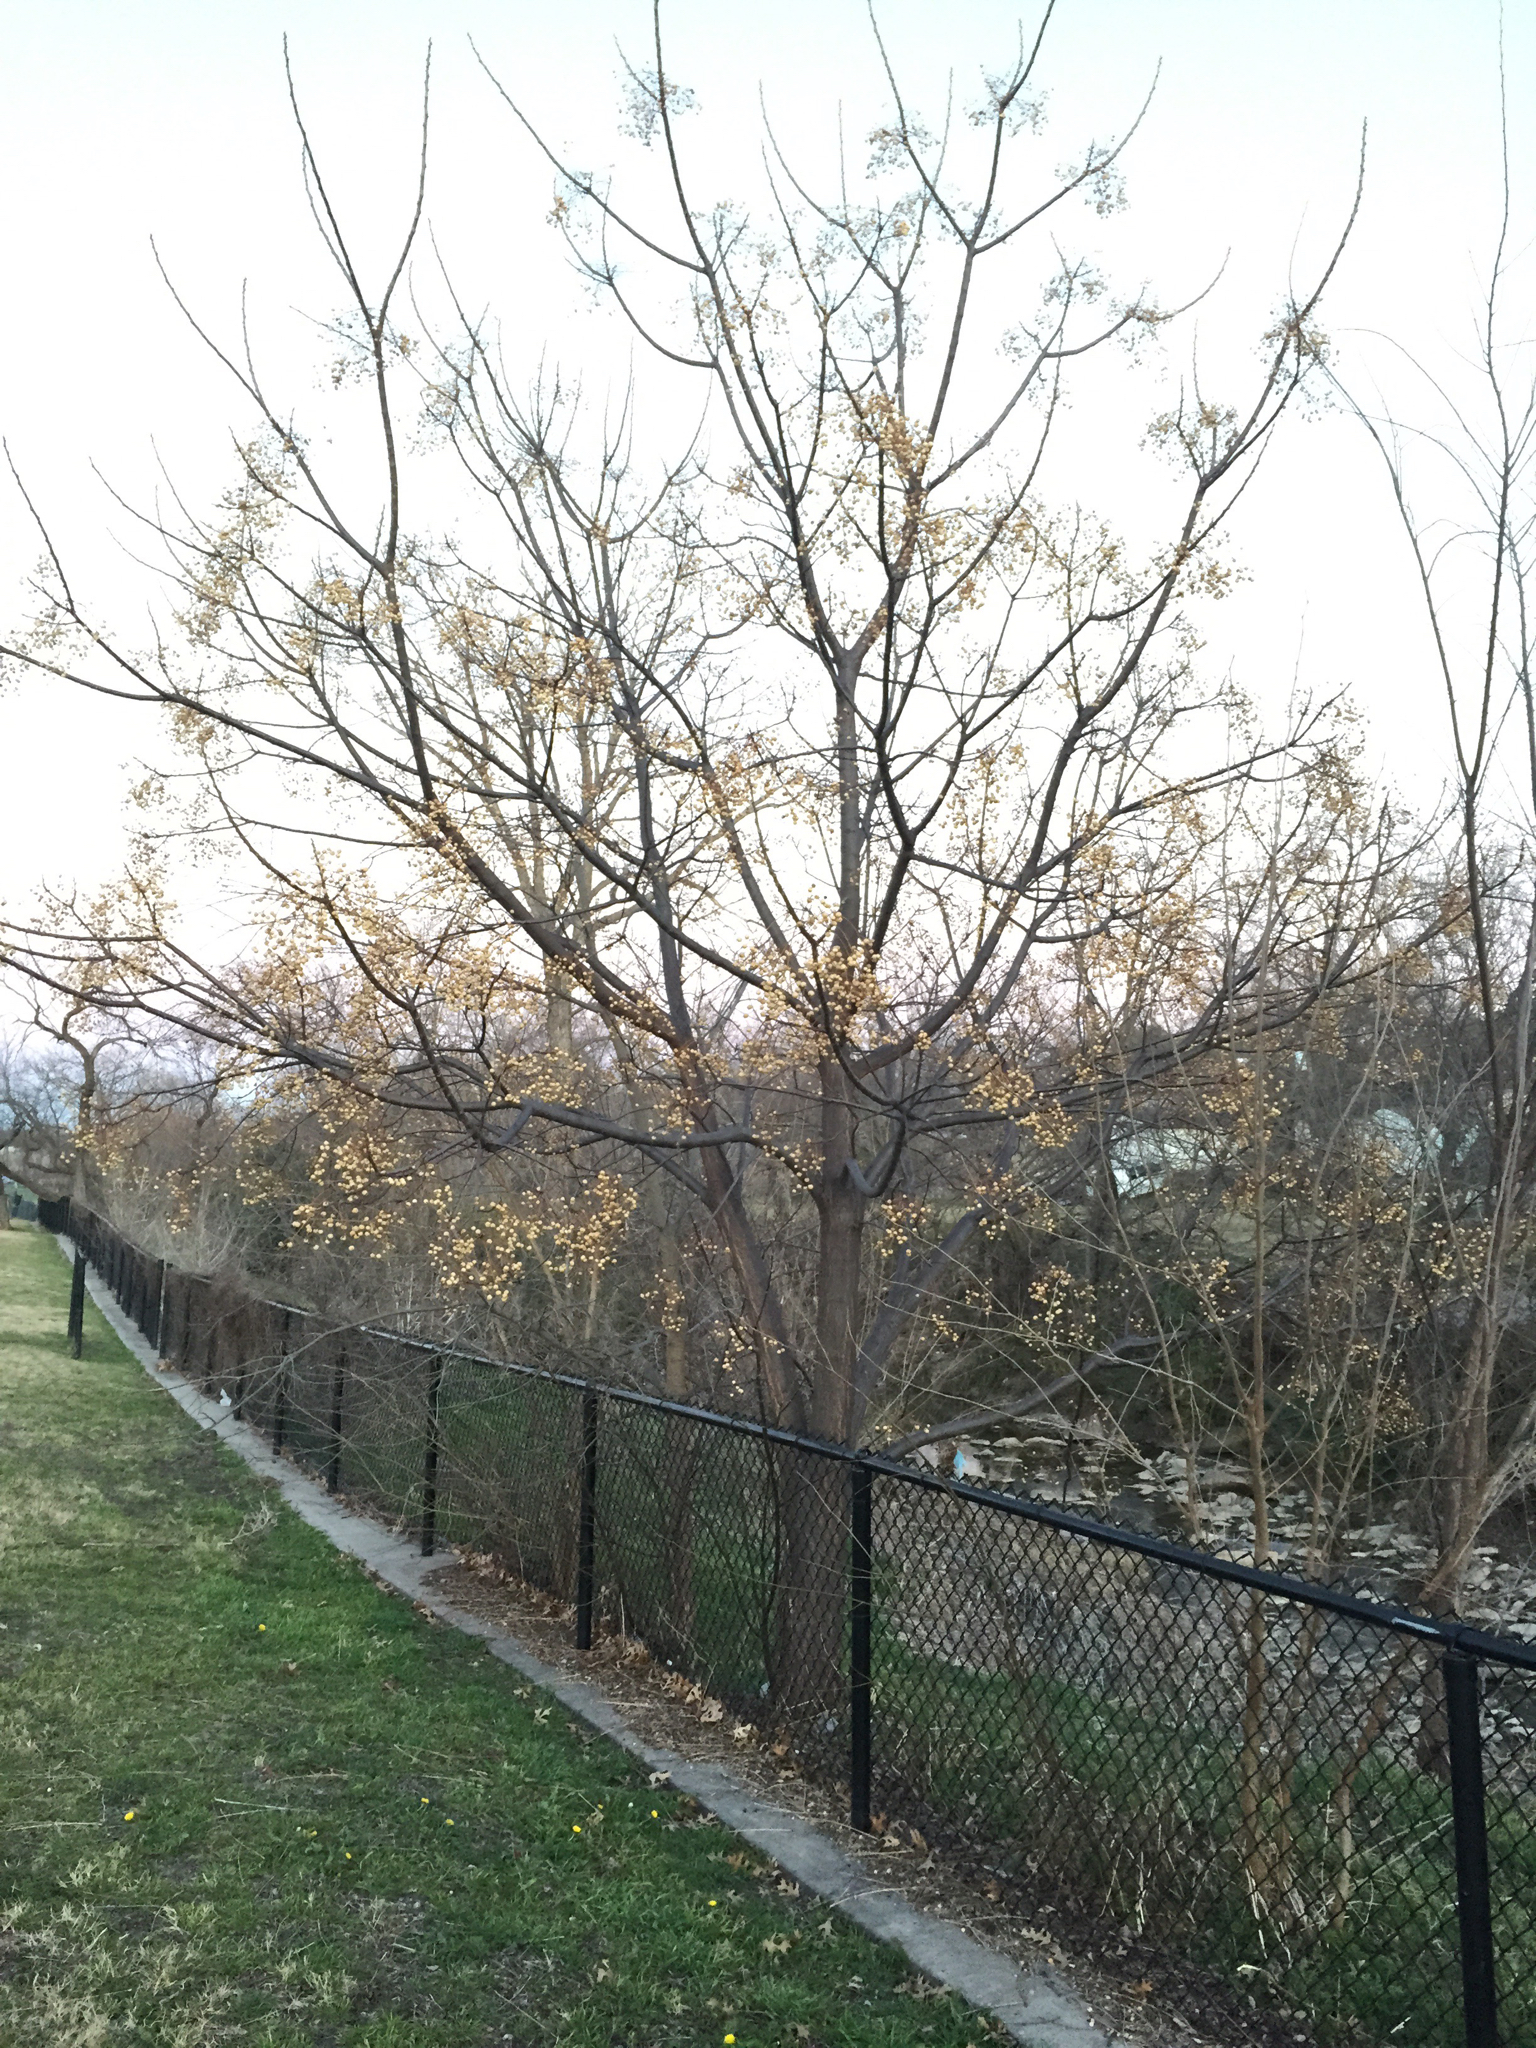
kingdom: Plantae
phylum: Tracheophyta
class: Magnoliopsida
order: Sapindales
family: Meliaceae
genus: Melia
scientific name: Melia azedarach
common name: Chinaberrytree
